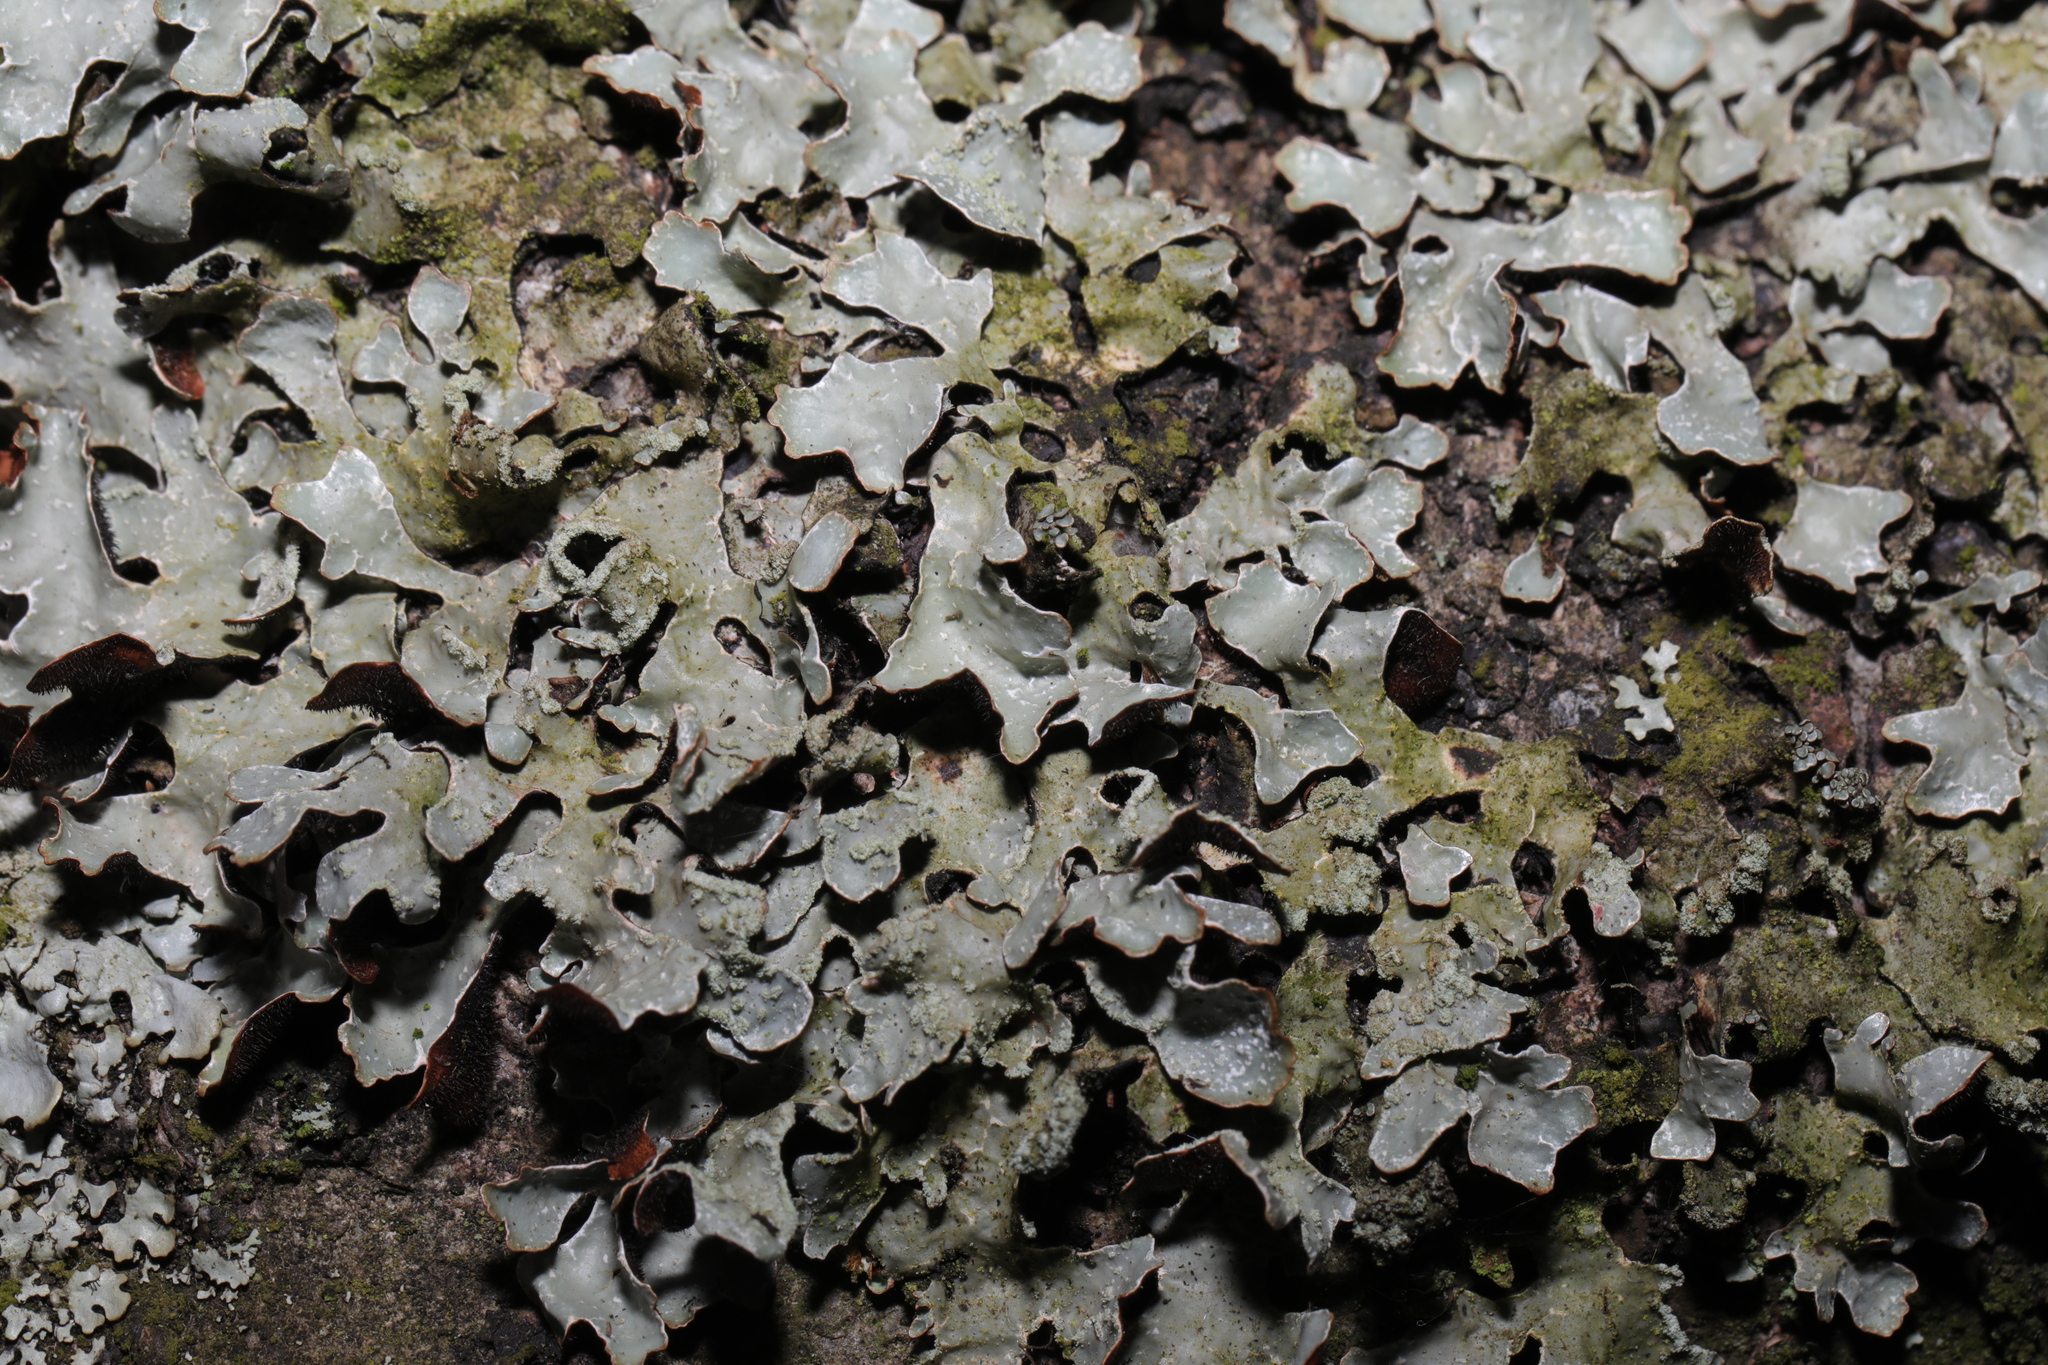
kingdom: Fungi
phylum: Ascomycota
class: Lecanoromycetes
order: Lecanorales
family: Parmeliaceae
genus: Parmelia
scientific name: Parmelia sulcata
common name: Netted shield lichen
